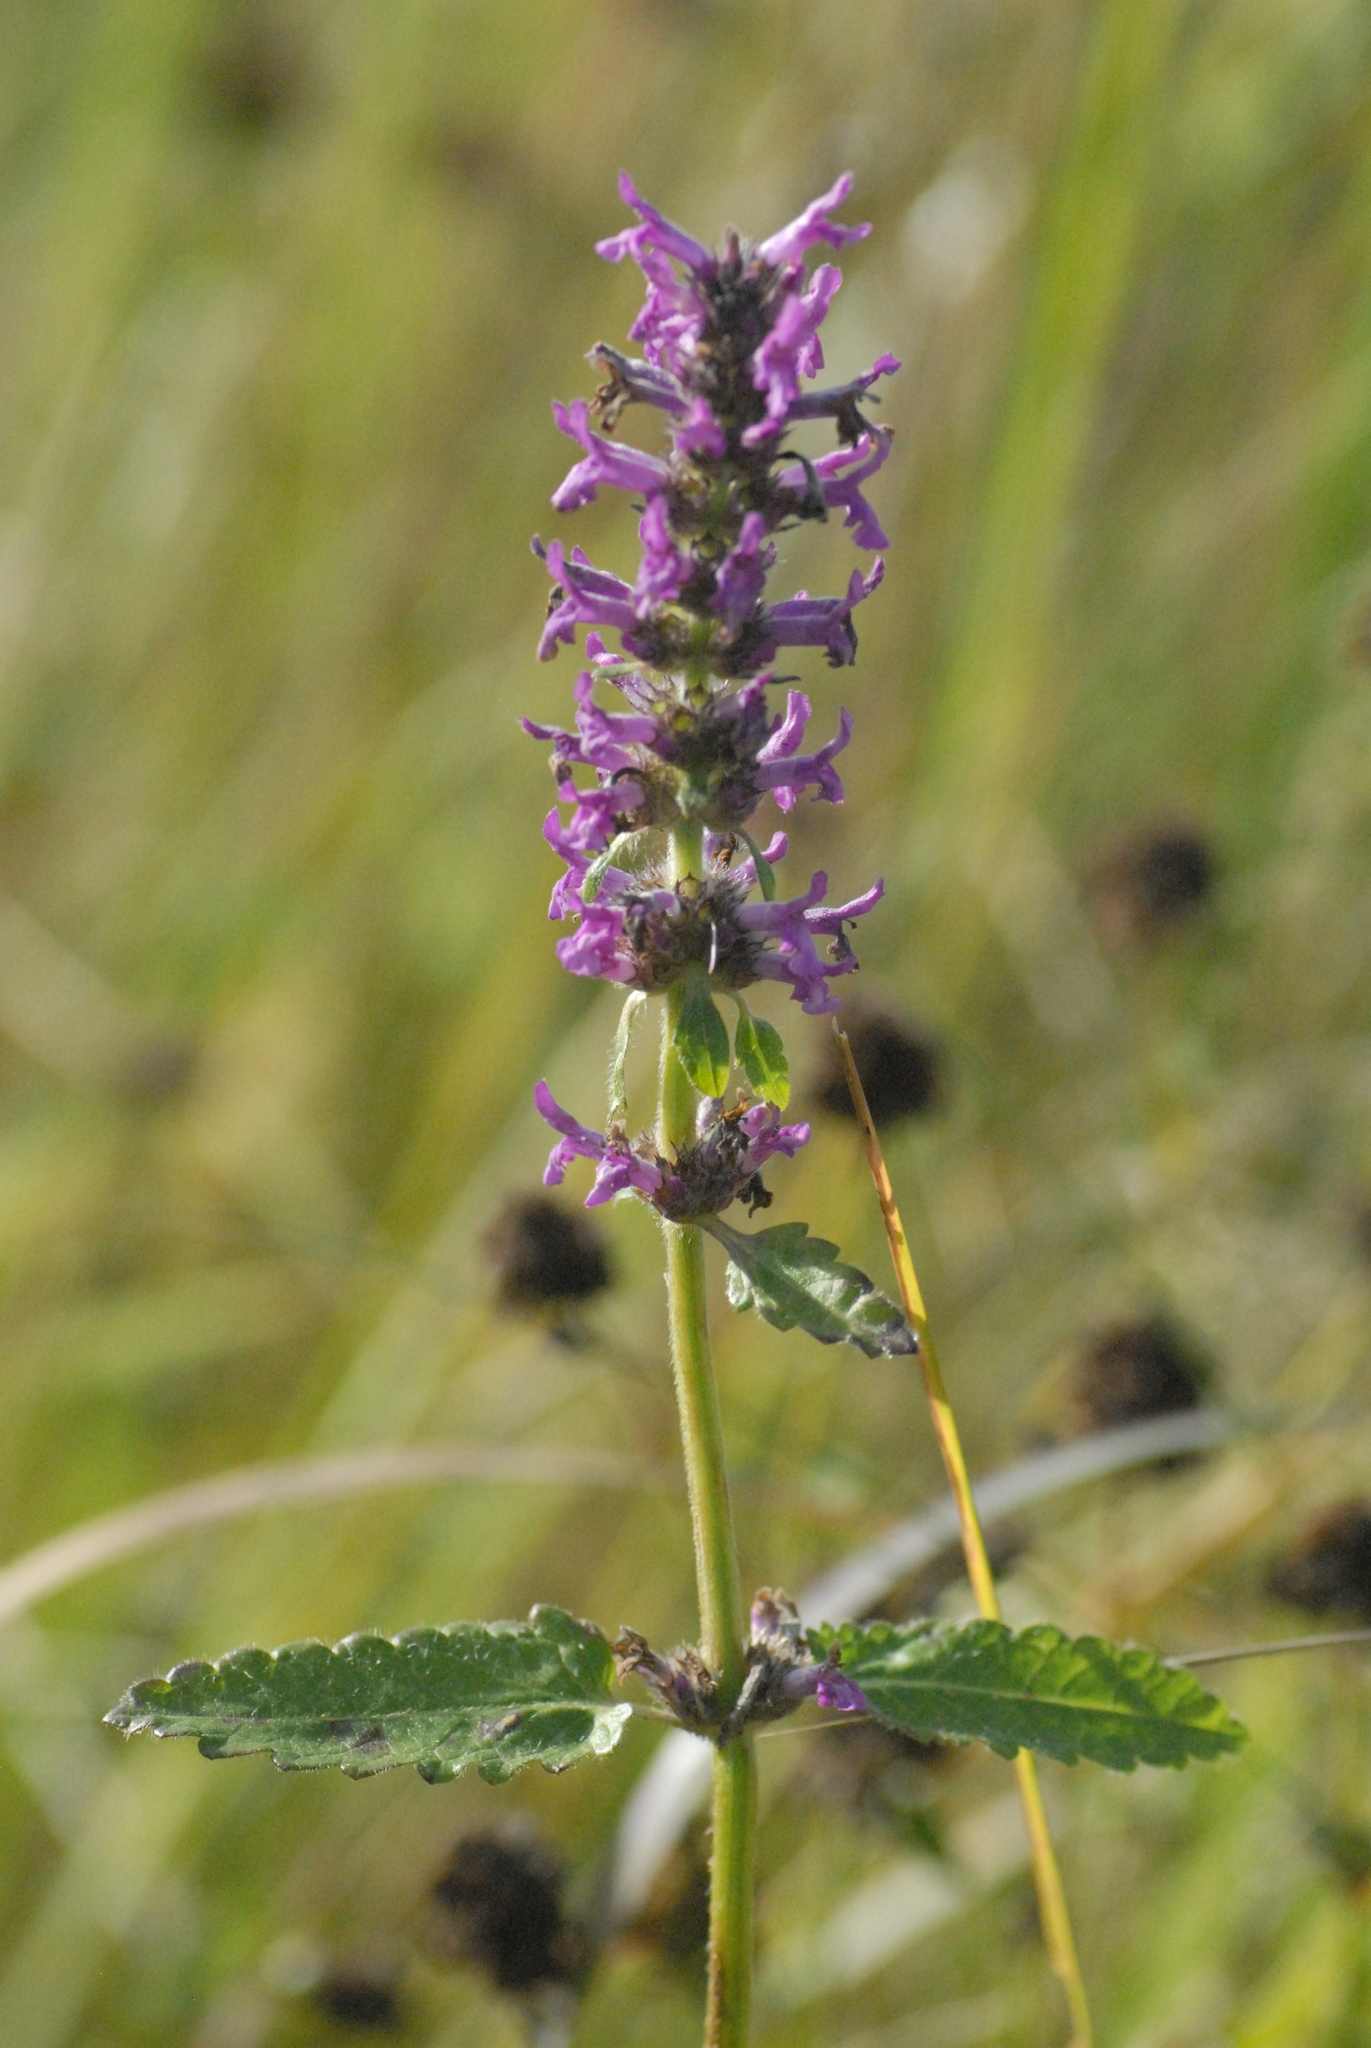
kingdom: Plantae
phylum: Tracheophyta
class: Magnoliopsida
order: Lamiales
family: Lamiaceae
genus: Betonica
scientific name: Betonica officinalis
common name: Bishop's-wort
